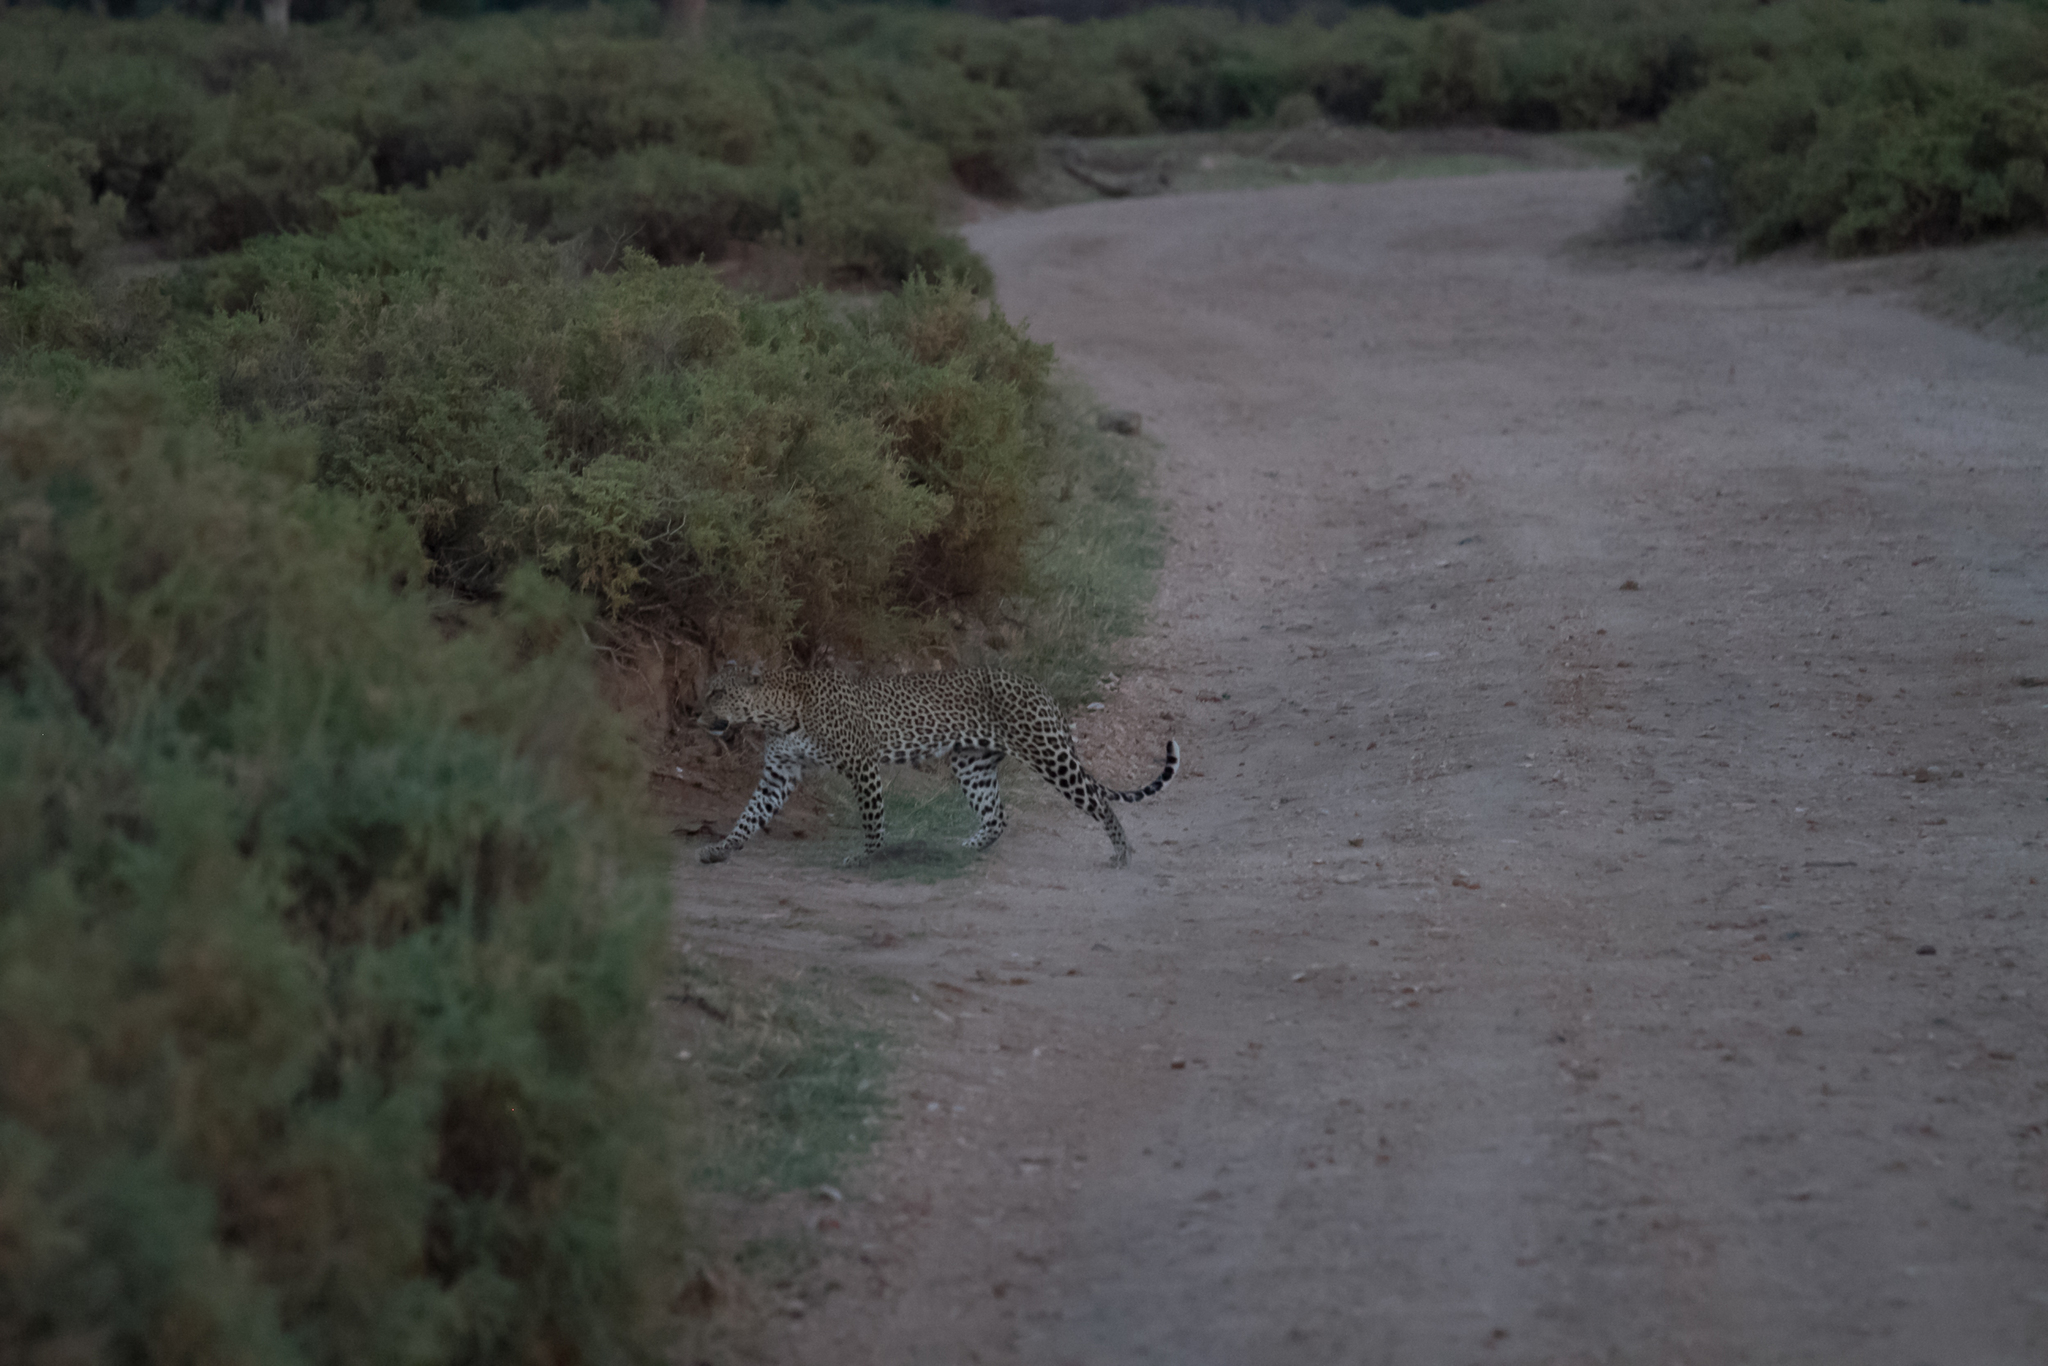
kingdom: Animalia
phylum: Chordata
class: Mammalia
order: Carnivora
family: Felidae
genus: Panthera
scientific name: Panthera pardus
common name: Leopard
